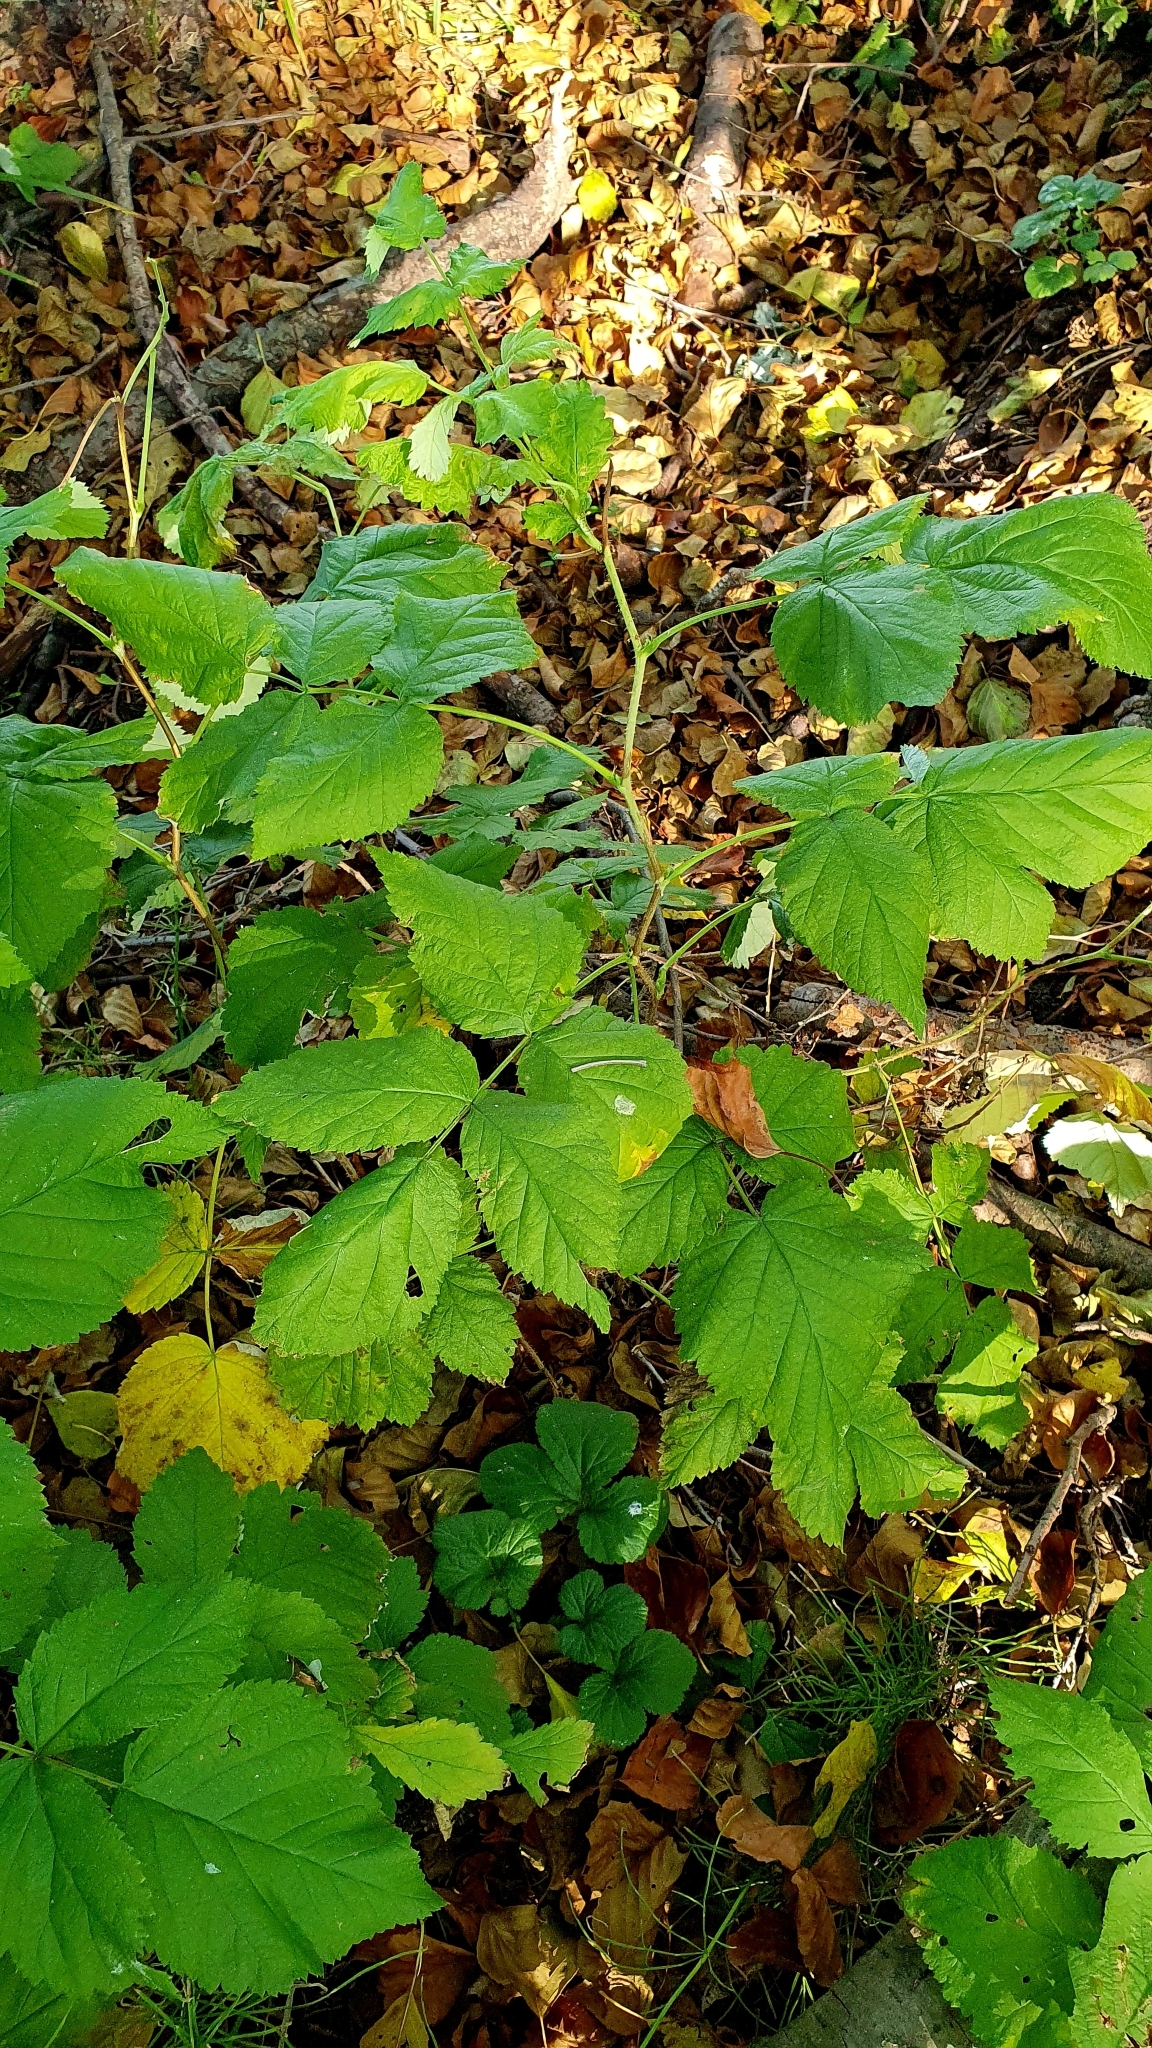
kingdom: Plantae
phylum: Tracheophyta
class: Magnoliopsida
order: Rosales
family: Rosaceae
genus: Rubus
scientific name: Rubus idaeus
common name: Raspberry
